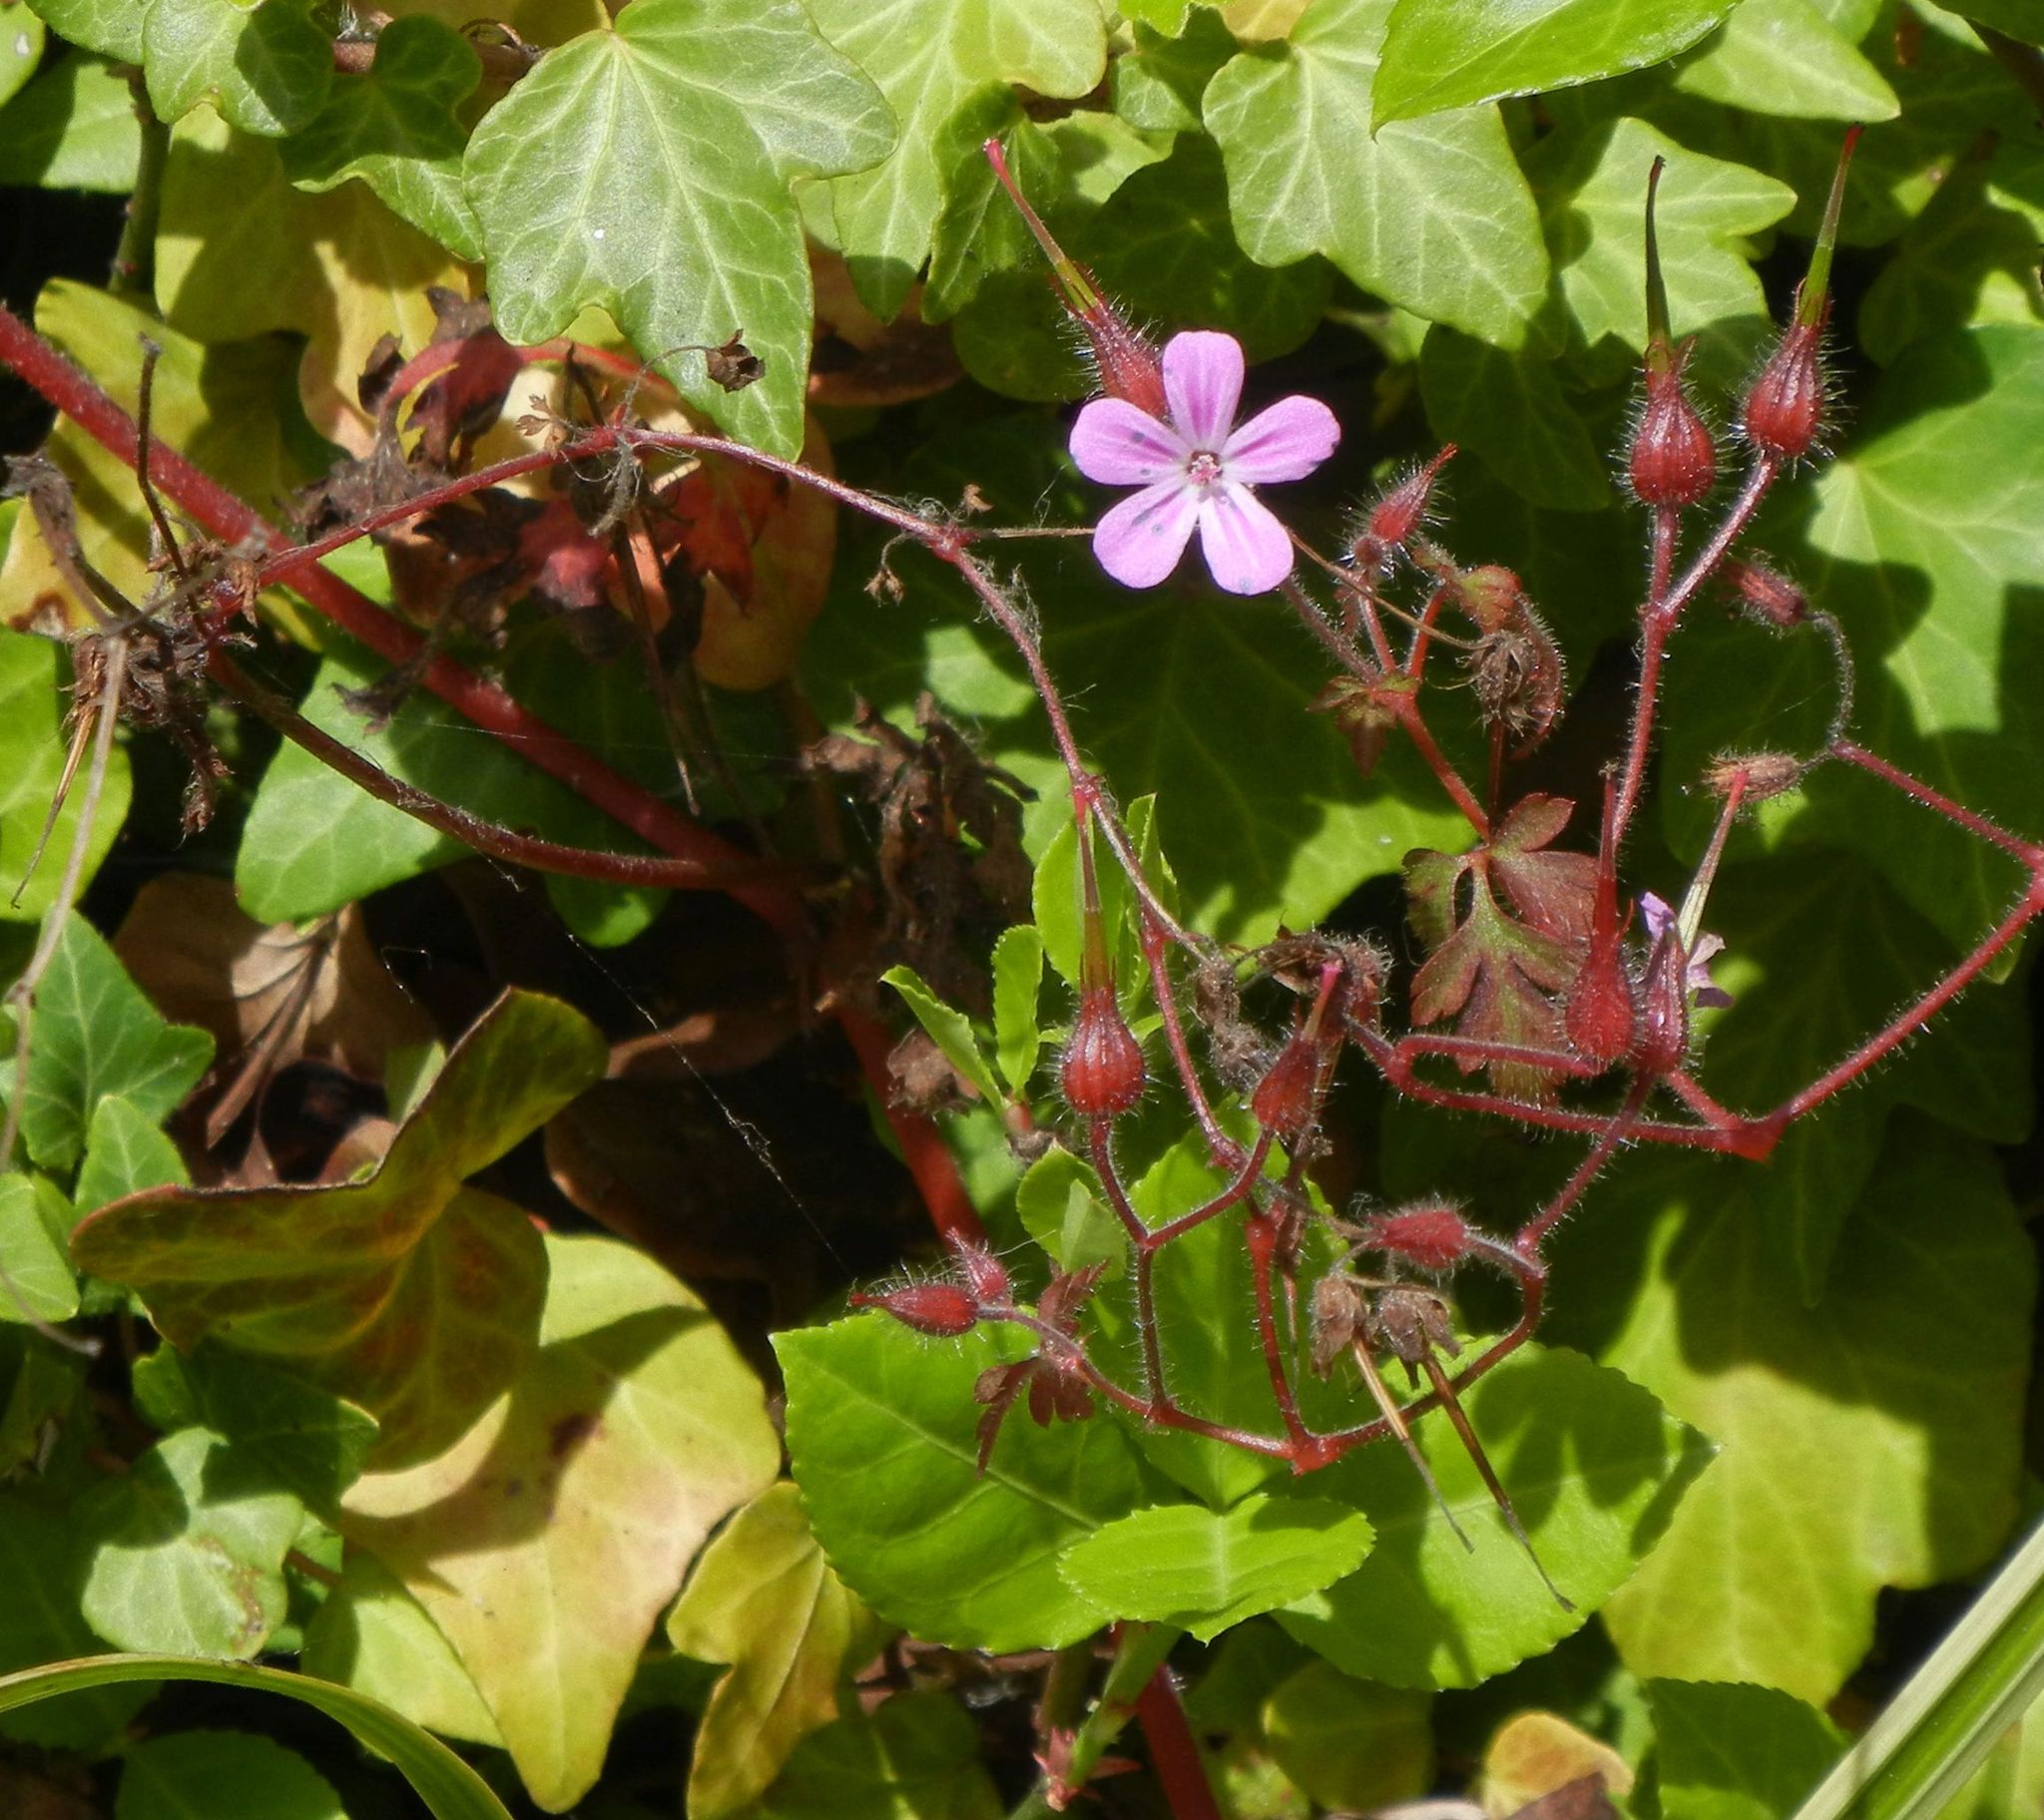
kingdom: Plantae
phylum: Tracheophyta
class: Magnoliopsida
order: Geraniales
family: Geraniaceae
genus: Geranium
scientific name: Geranium robertianum
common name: Herb-robert
